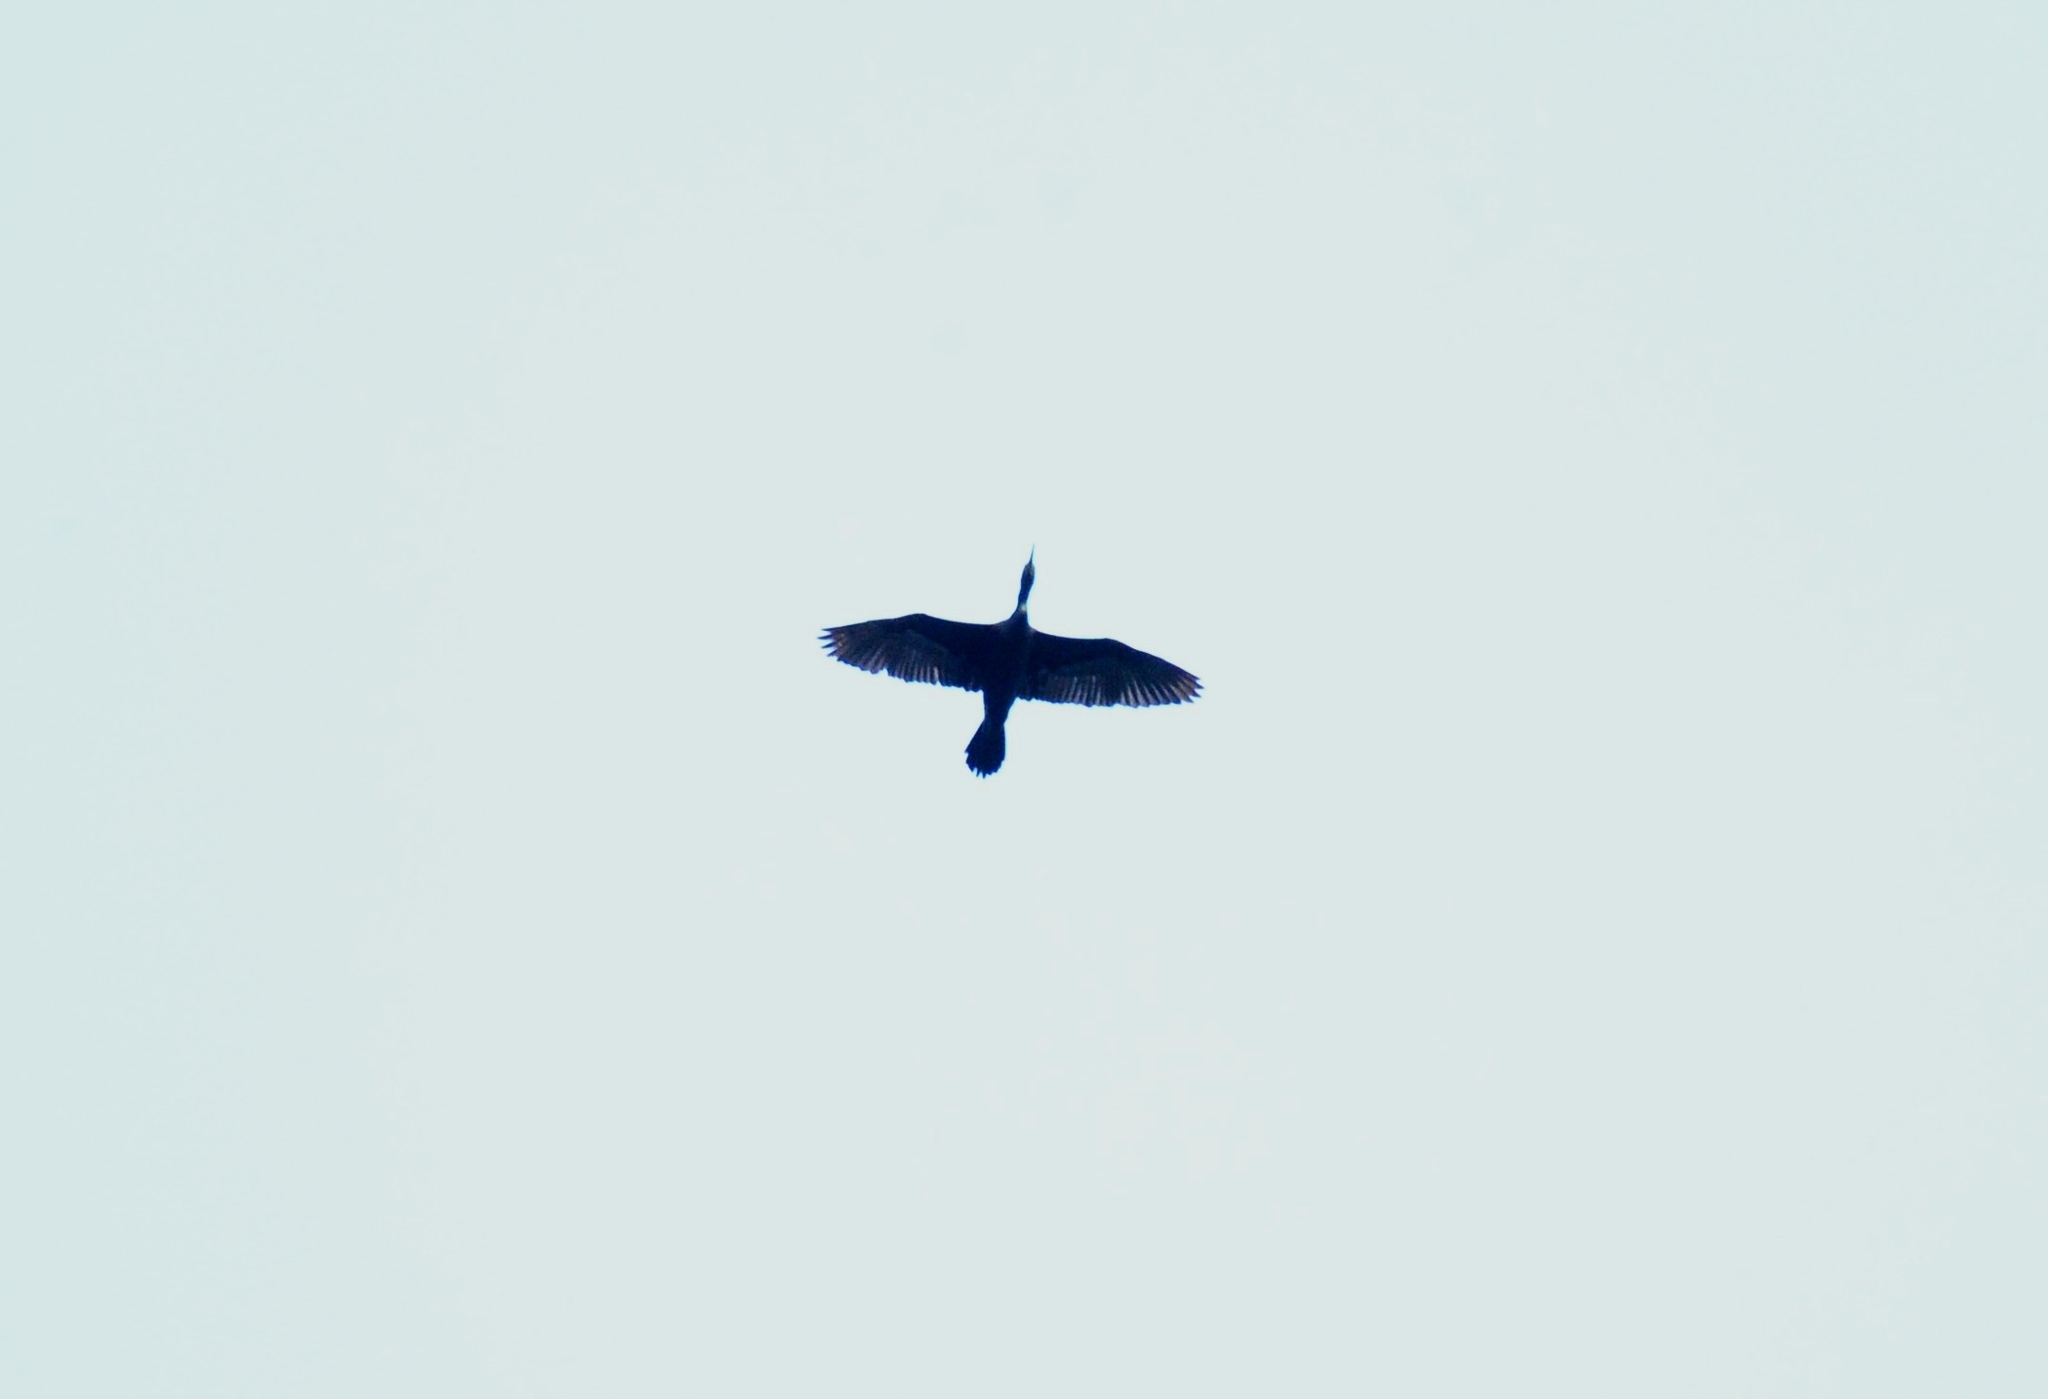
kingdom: Animalia
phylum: Chordata
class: Aves
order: Suliformes
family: Phalacrocoracidae
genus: Phalacrocorax
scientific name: Phalacrocorax fuscicollis
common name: Indian cormorant
